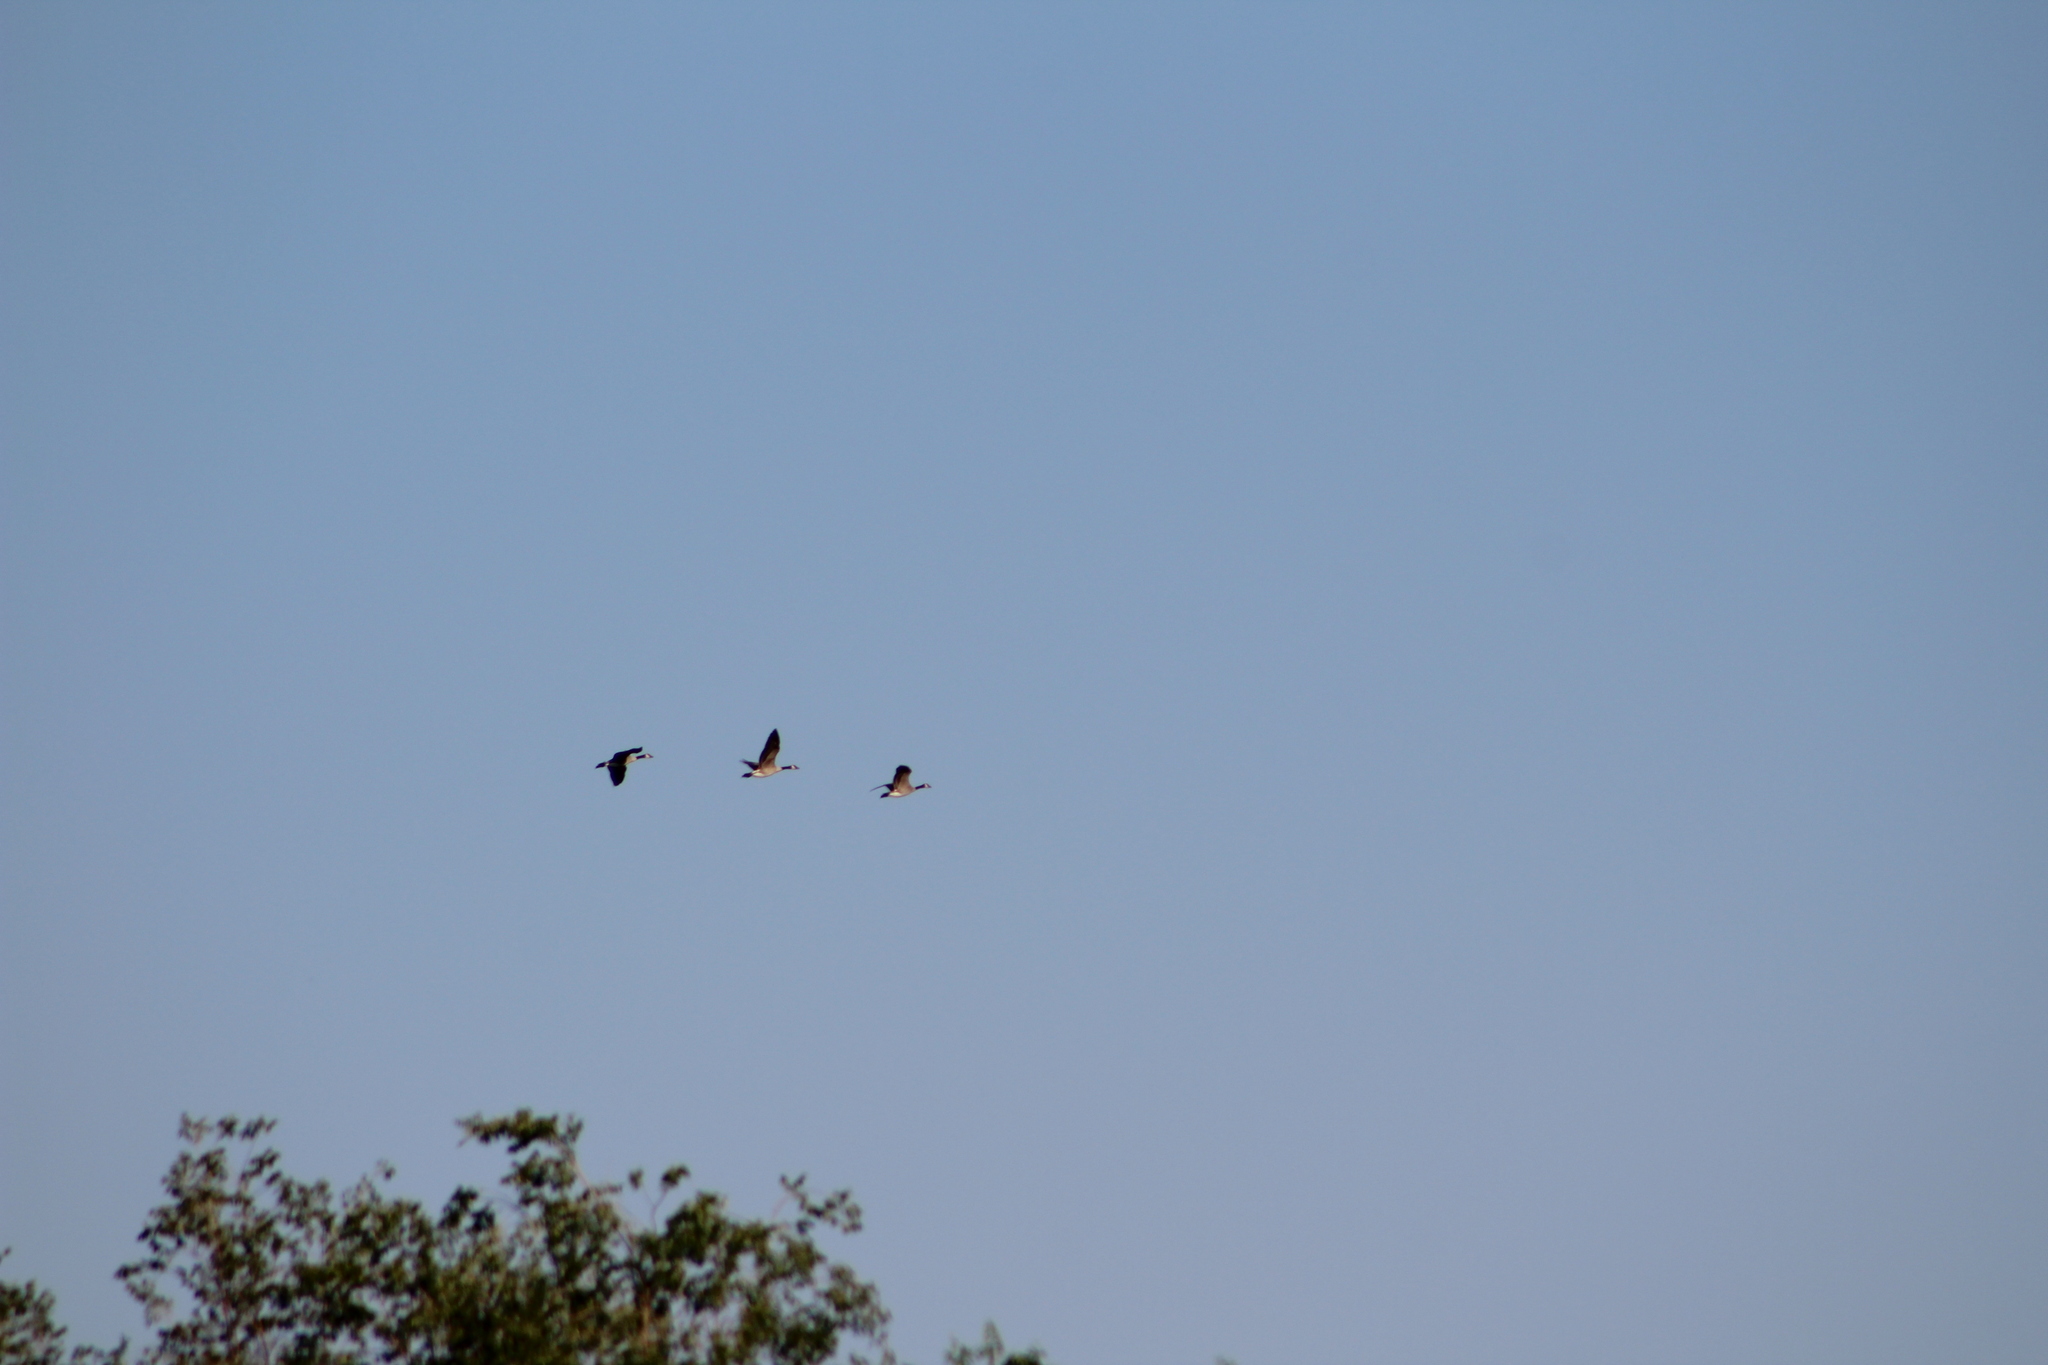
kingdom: Animalia
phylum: Chordata
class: Aves
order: Anseriformes
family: Anatidae
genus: Branta
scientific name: Branta canadensis
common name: Canada goose
